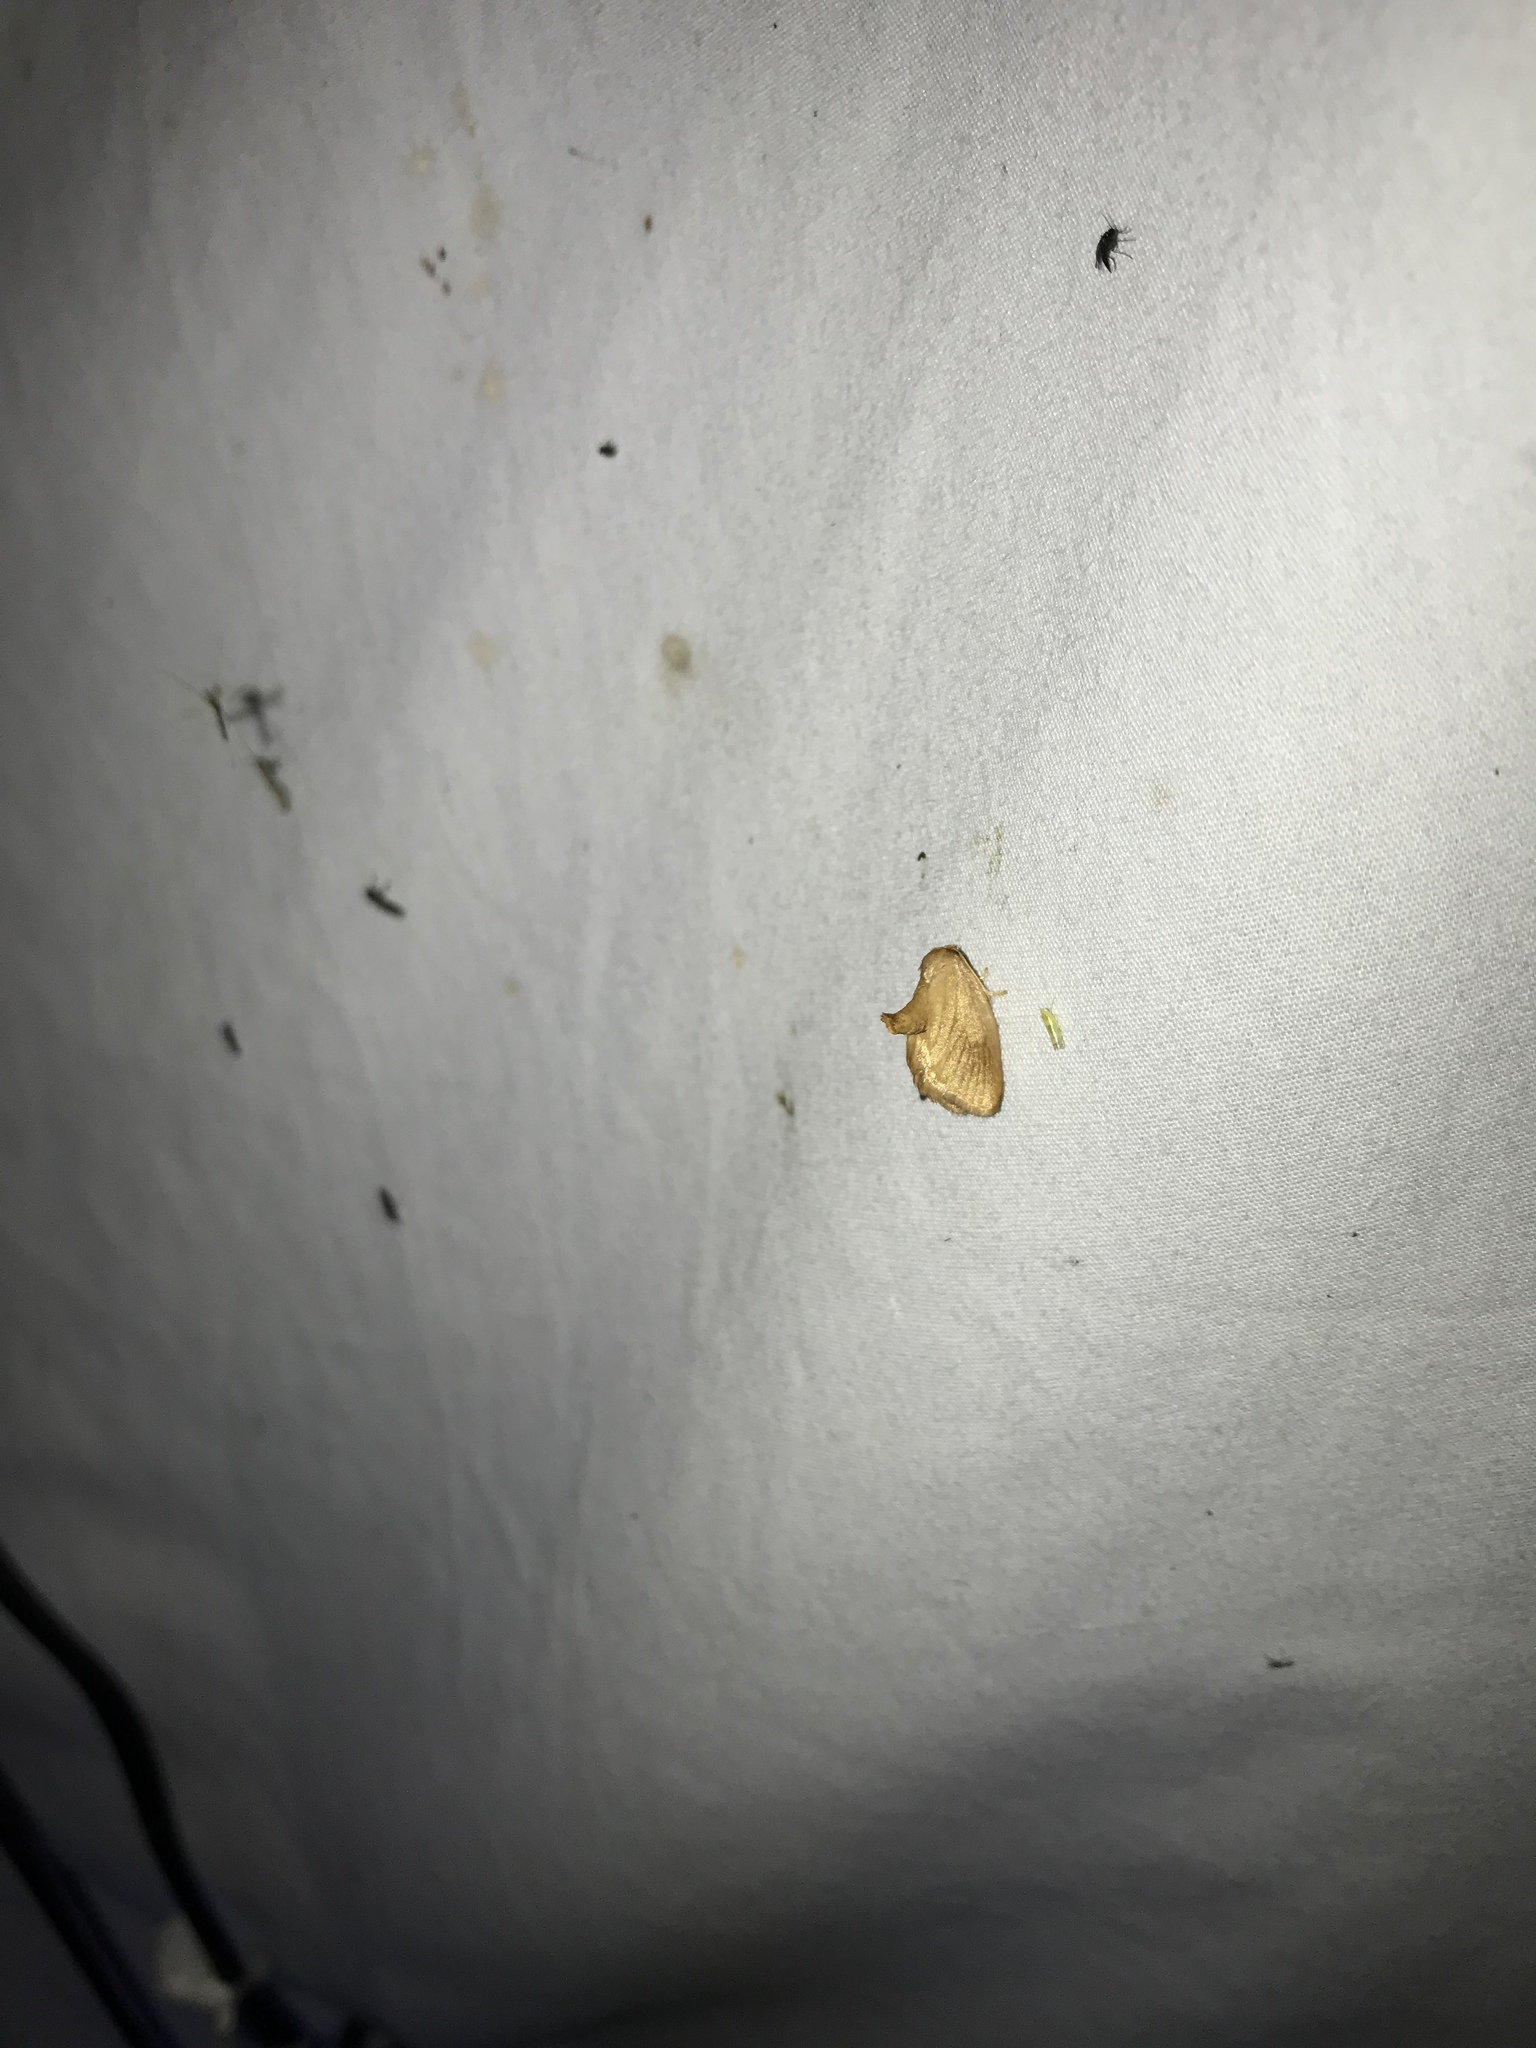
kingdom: Animalia
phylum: Arthropoda
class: Insecta
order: Lepidoptera
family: Limacodidae
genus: Tortricidia
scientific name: Tortricidia testacea
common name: Early button slug moth
